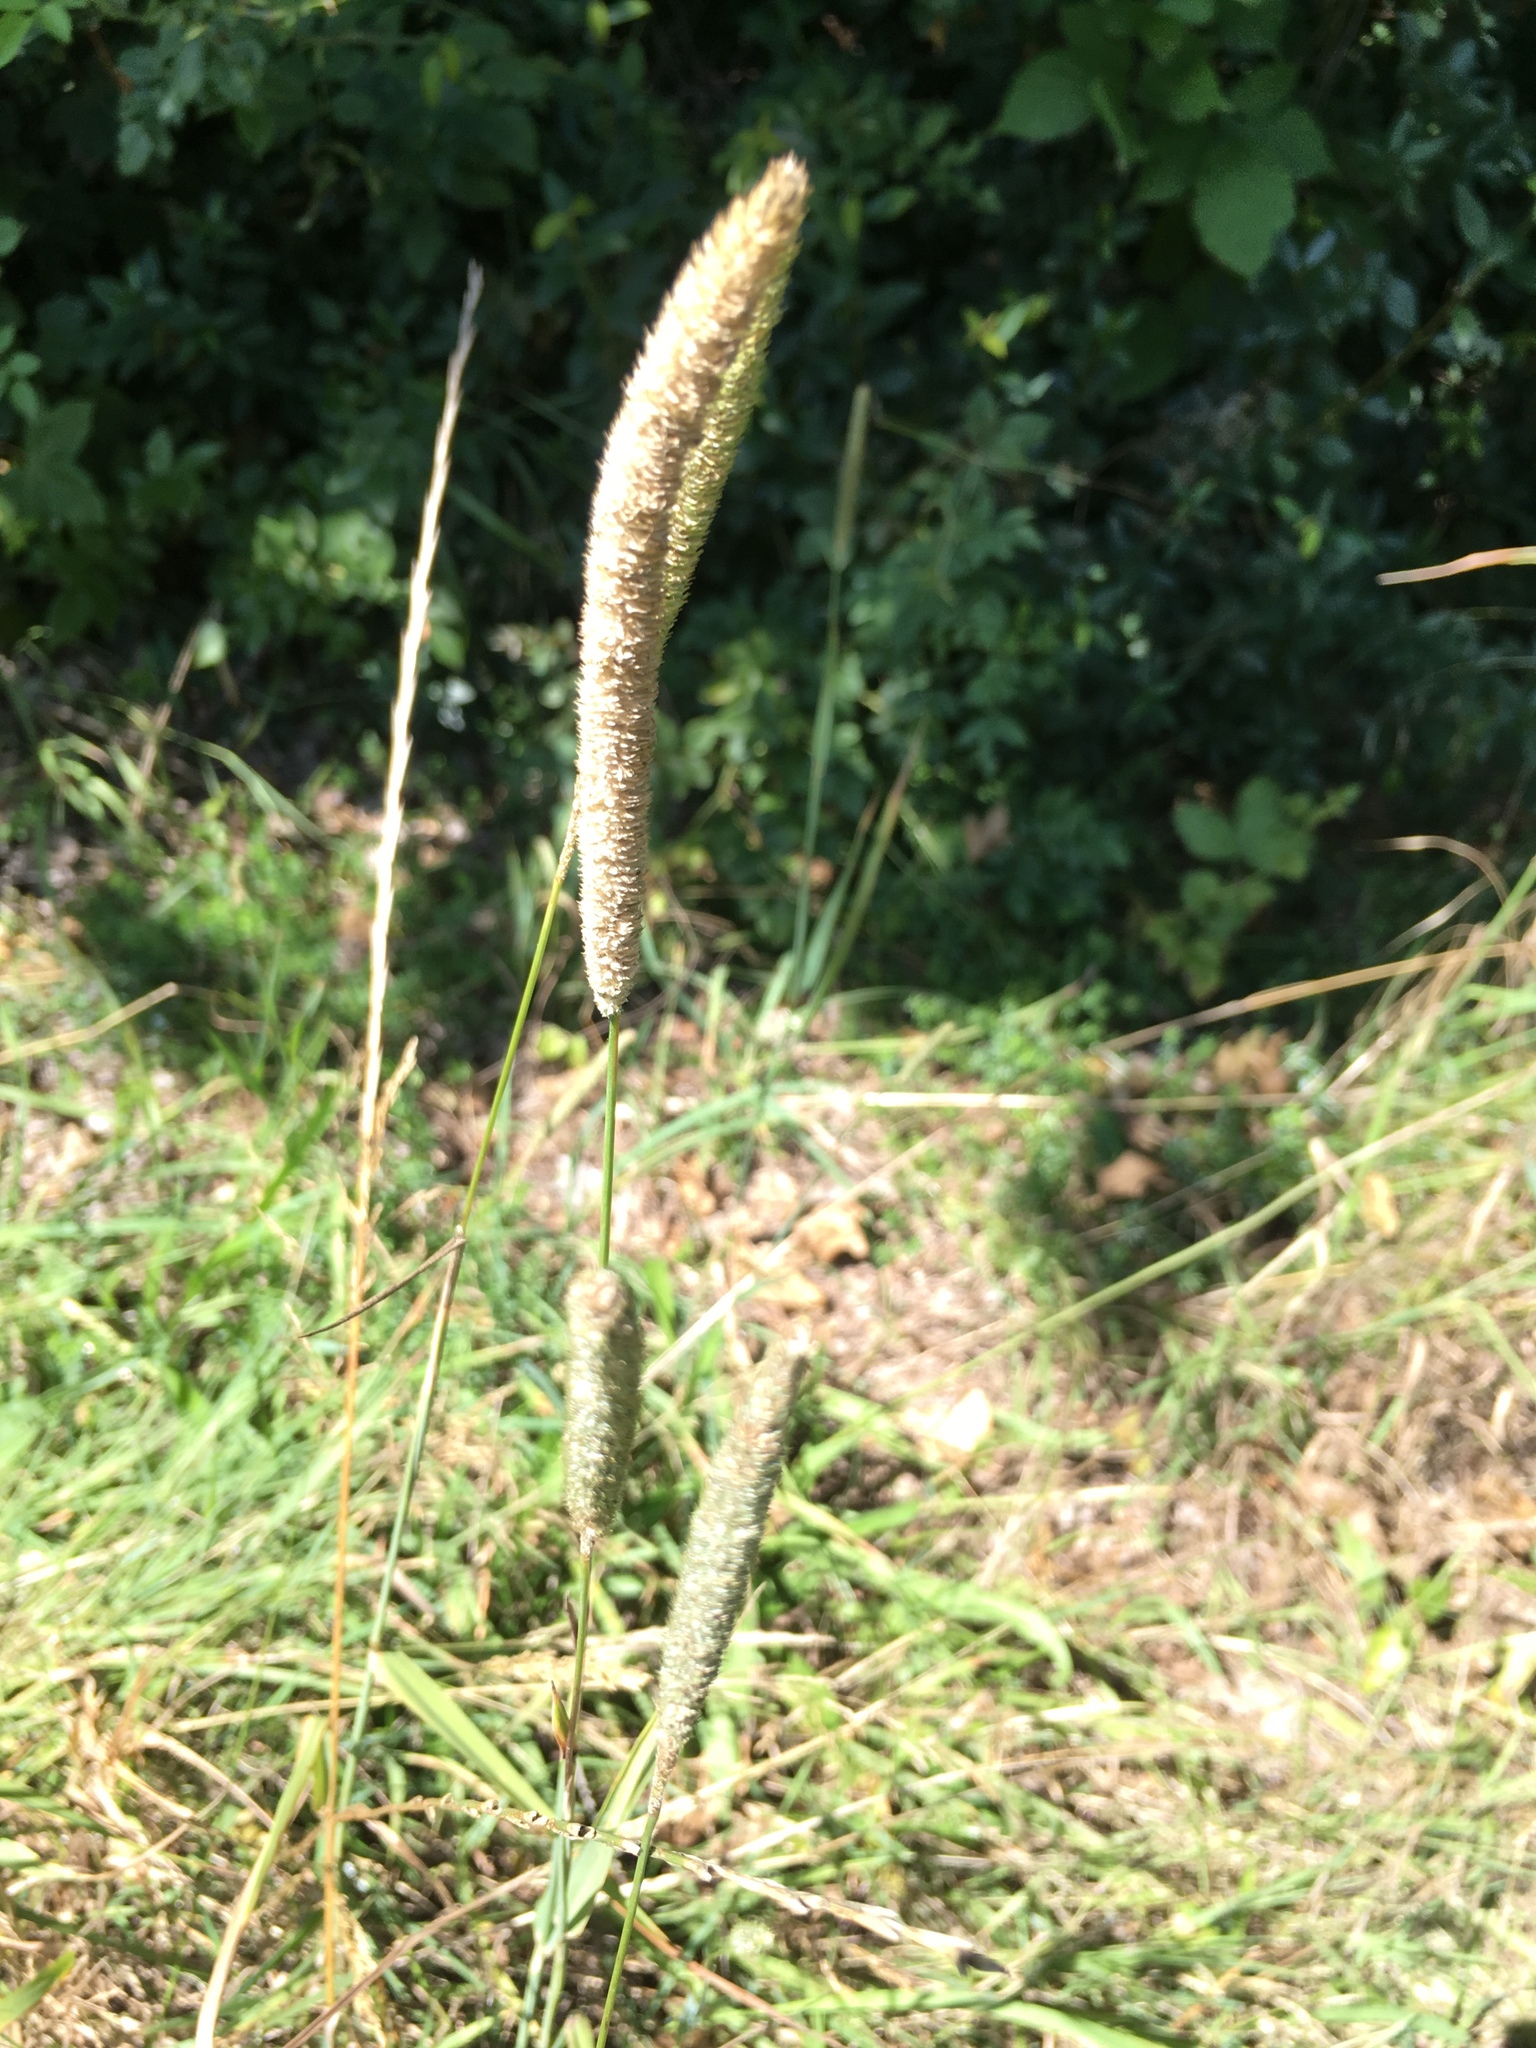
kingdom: Plantae
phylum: Tracheophyta
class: Liliopsida
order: Poales
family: Poaceae
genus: Phleum
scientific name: Phleum pratense
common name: Timothy grass
